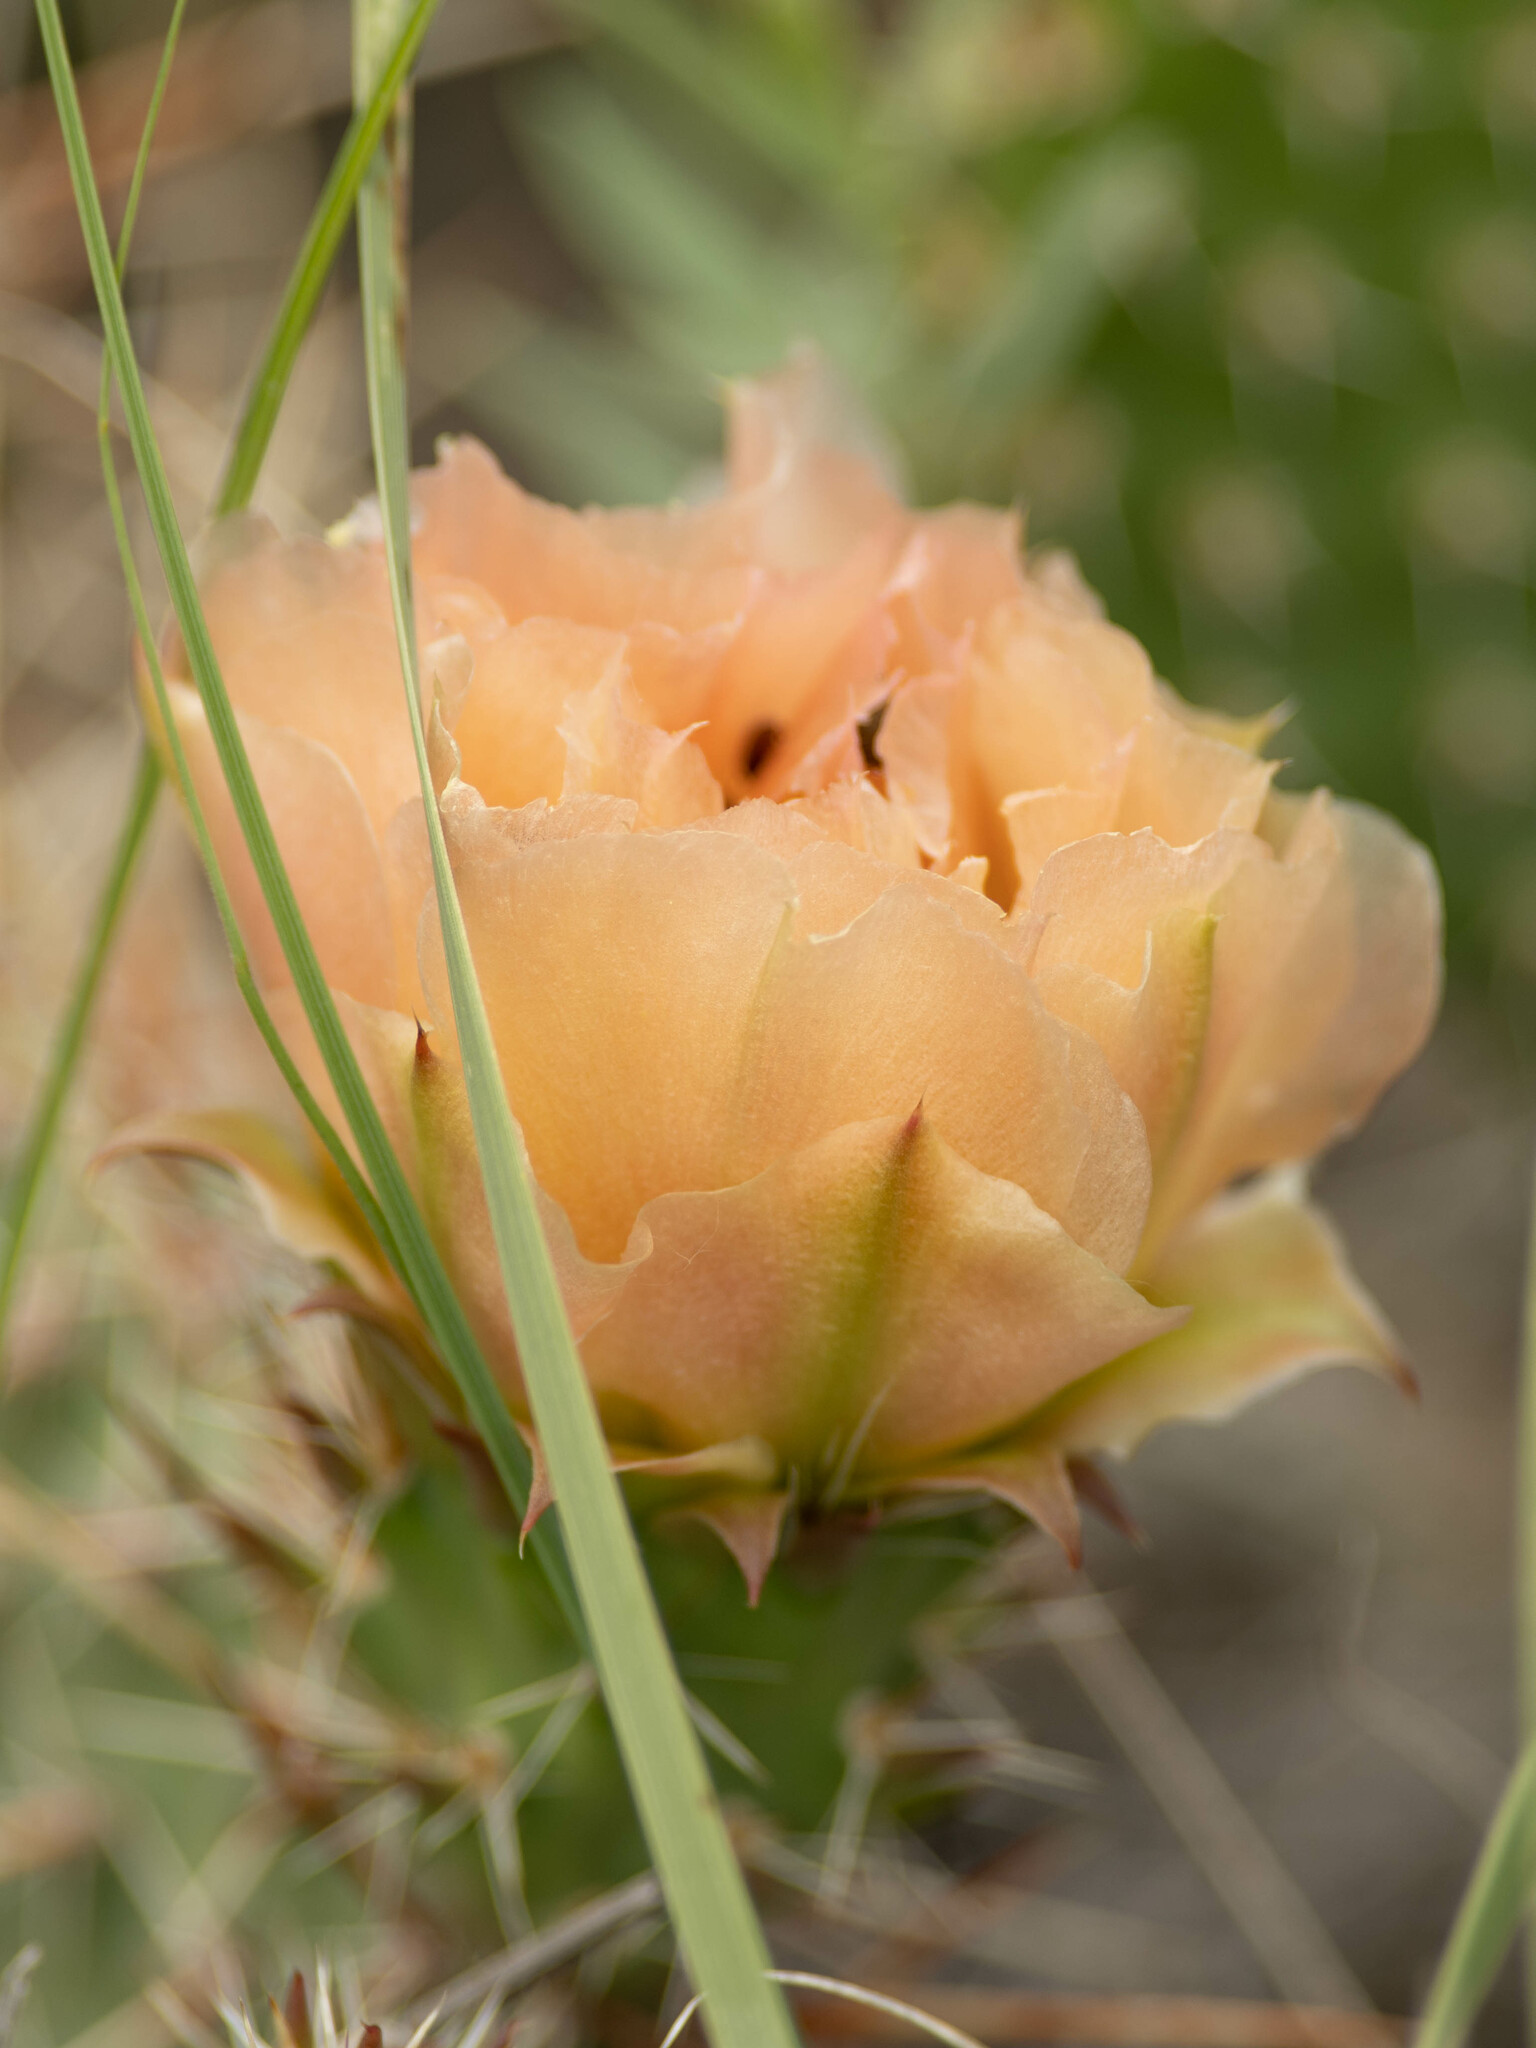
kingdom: Plantae
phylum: Tracheophyta
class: Magnoliopsida
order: Caryophyllales
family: Cactaceae
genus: Opuntia
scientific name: Opuntia polyacantha
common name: Plains prickly-pear
